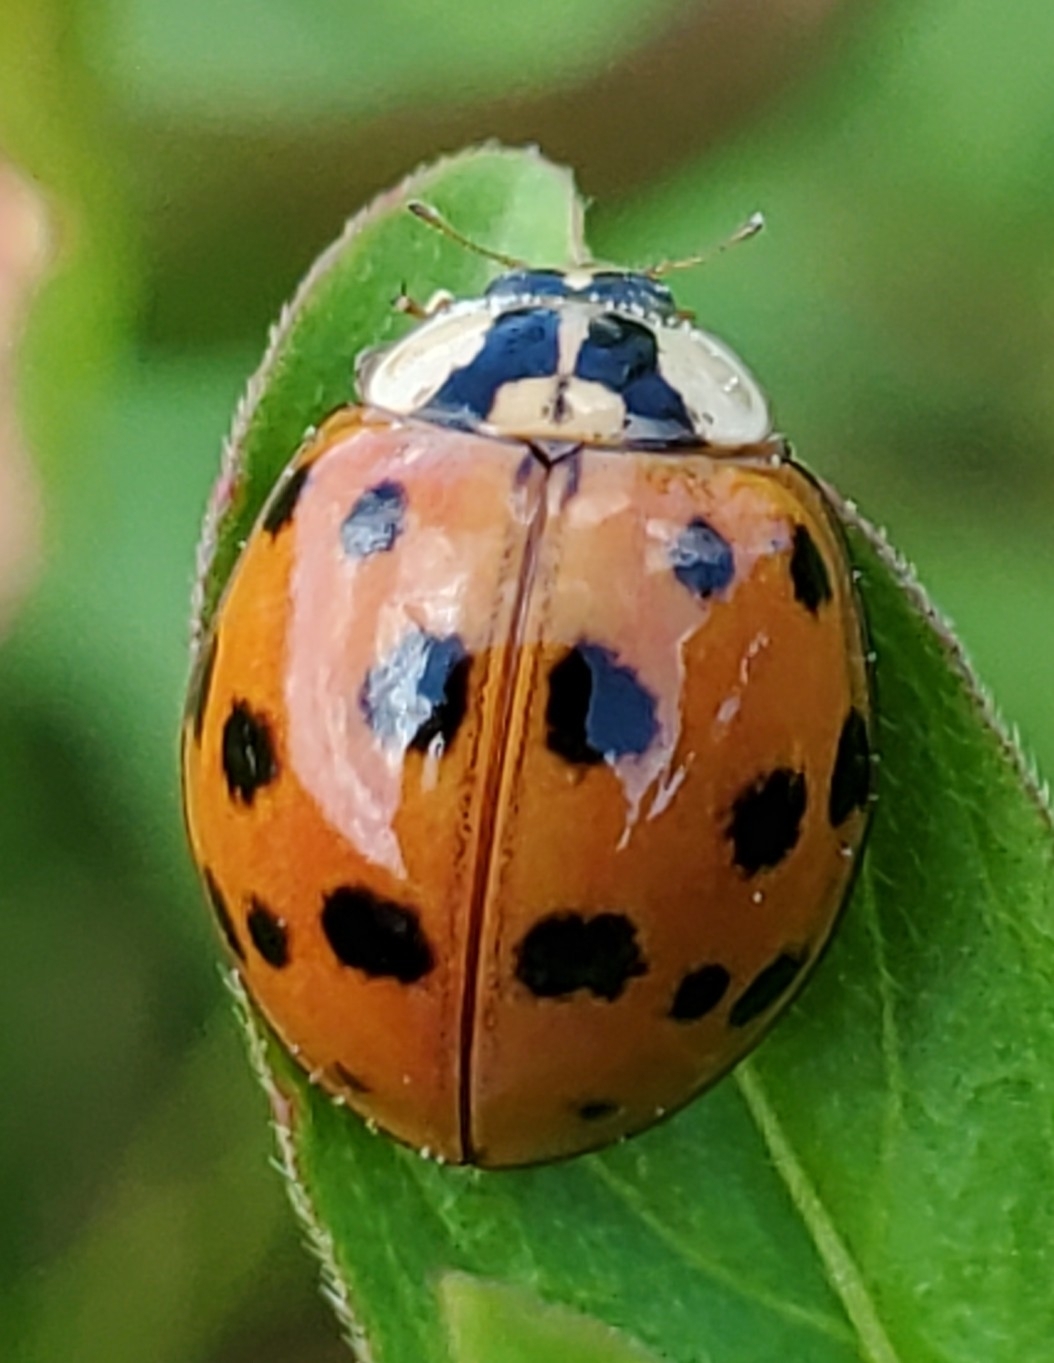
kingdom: Animalia
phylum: Arthropoda
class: Insecta
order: Coleoptera
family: Coccinellidae
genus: Harmonia
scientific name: Harmonia axyridis
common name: Harlequin ladybird
